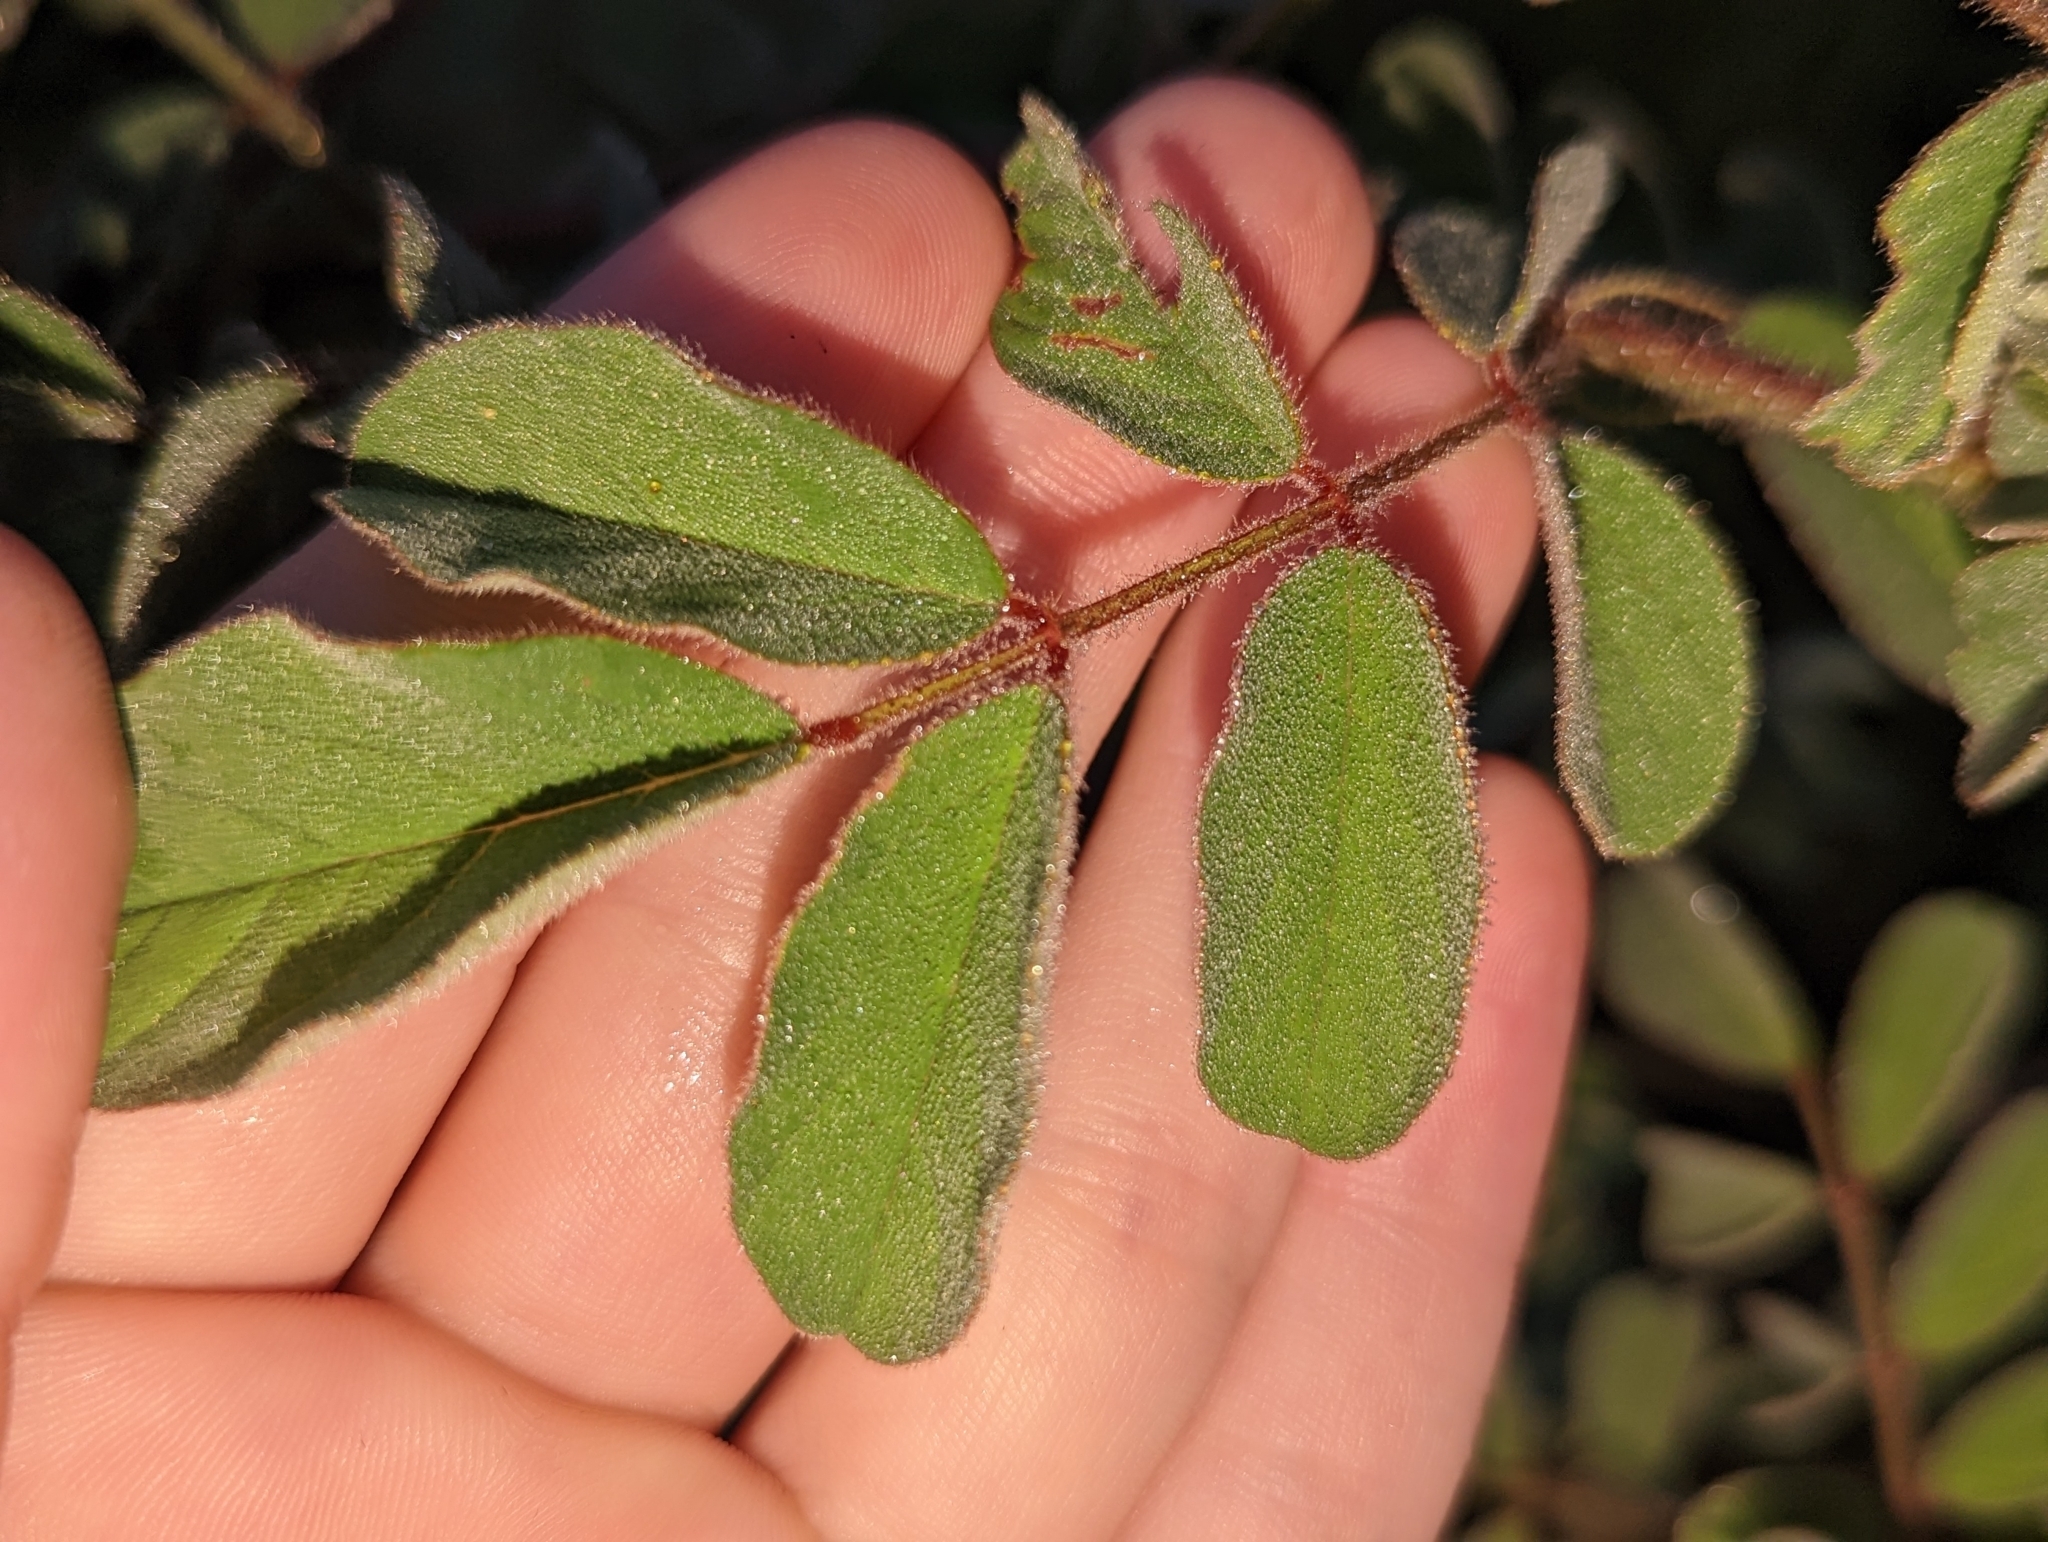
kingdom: Plantae
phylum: Tracheophyta
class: Magnoliopsida
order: Fabales
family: Fabaceae
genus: Indigofera
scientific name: Indigofera hirsuta
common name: Hairy indigo
